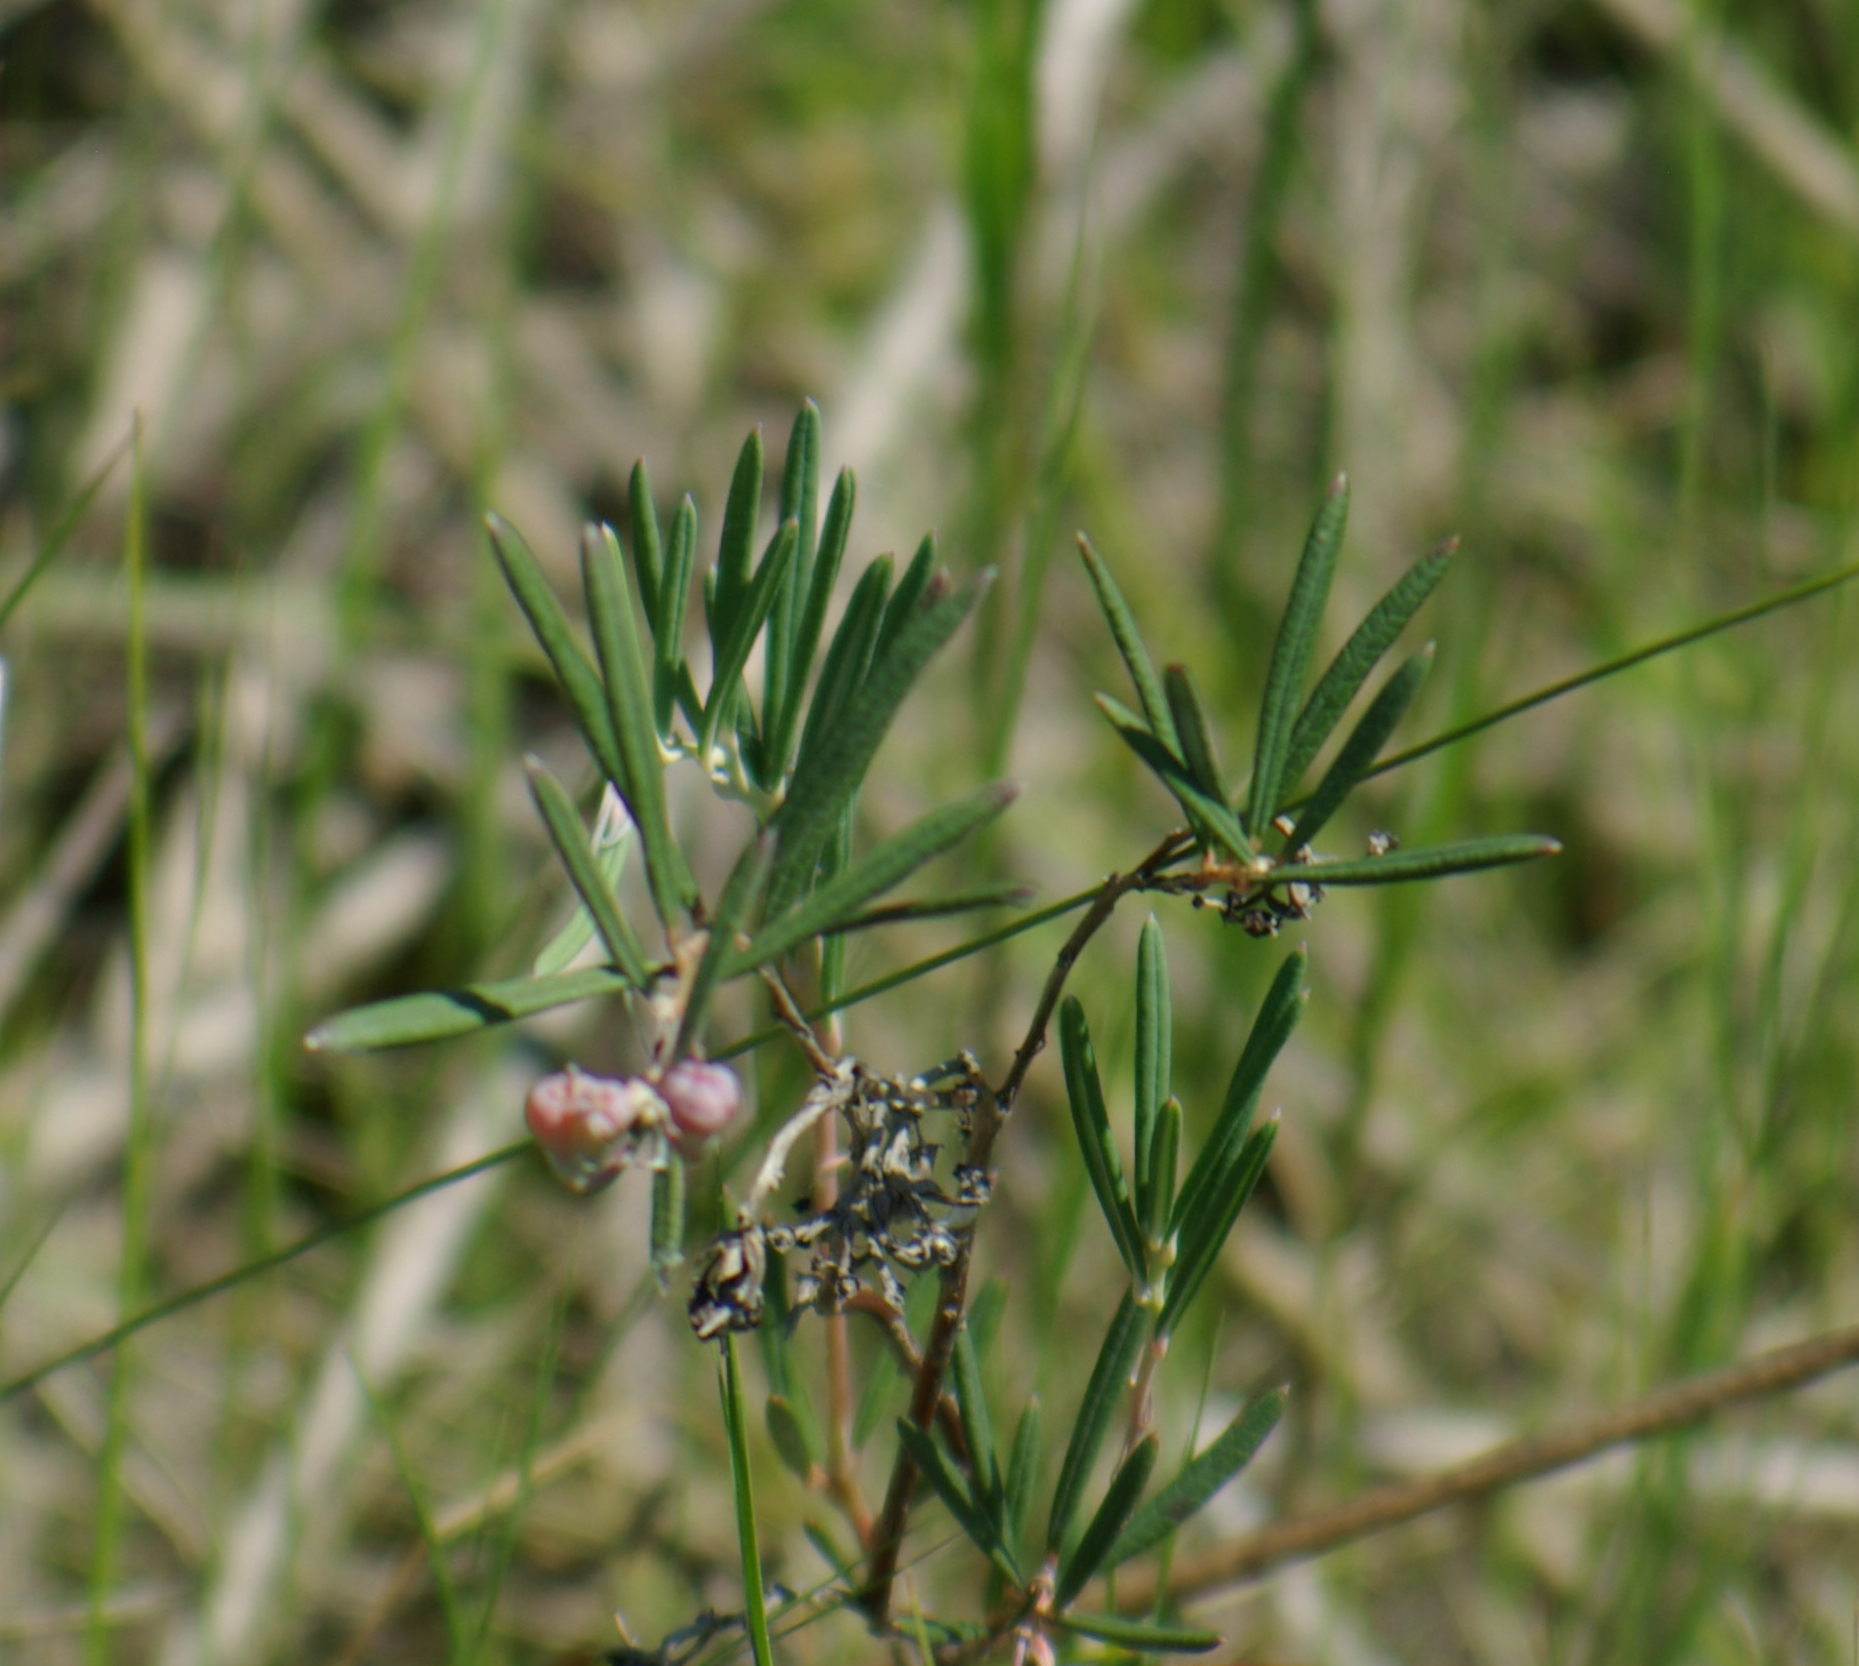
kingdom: Plantae
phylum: Tracheophyta
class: Magnoliopsida
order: Ericales
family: Ericaceae
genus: Andromeda
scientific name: Andromeda polifolia
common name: Bog-rosemary
